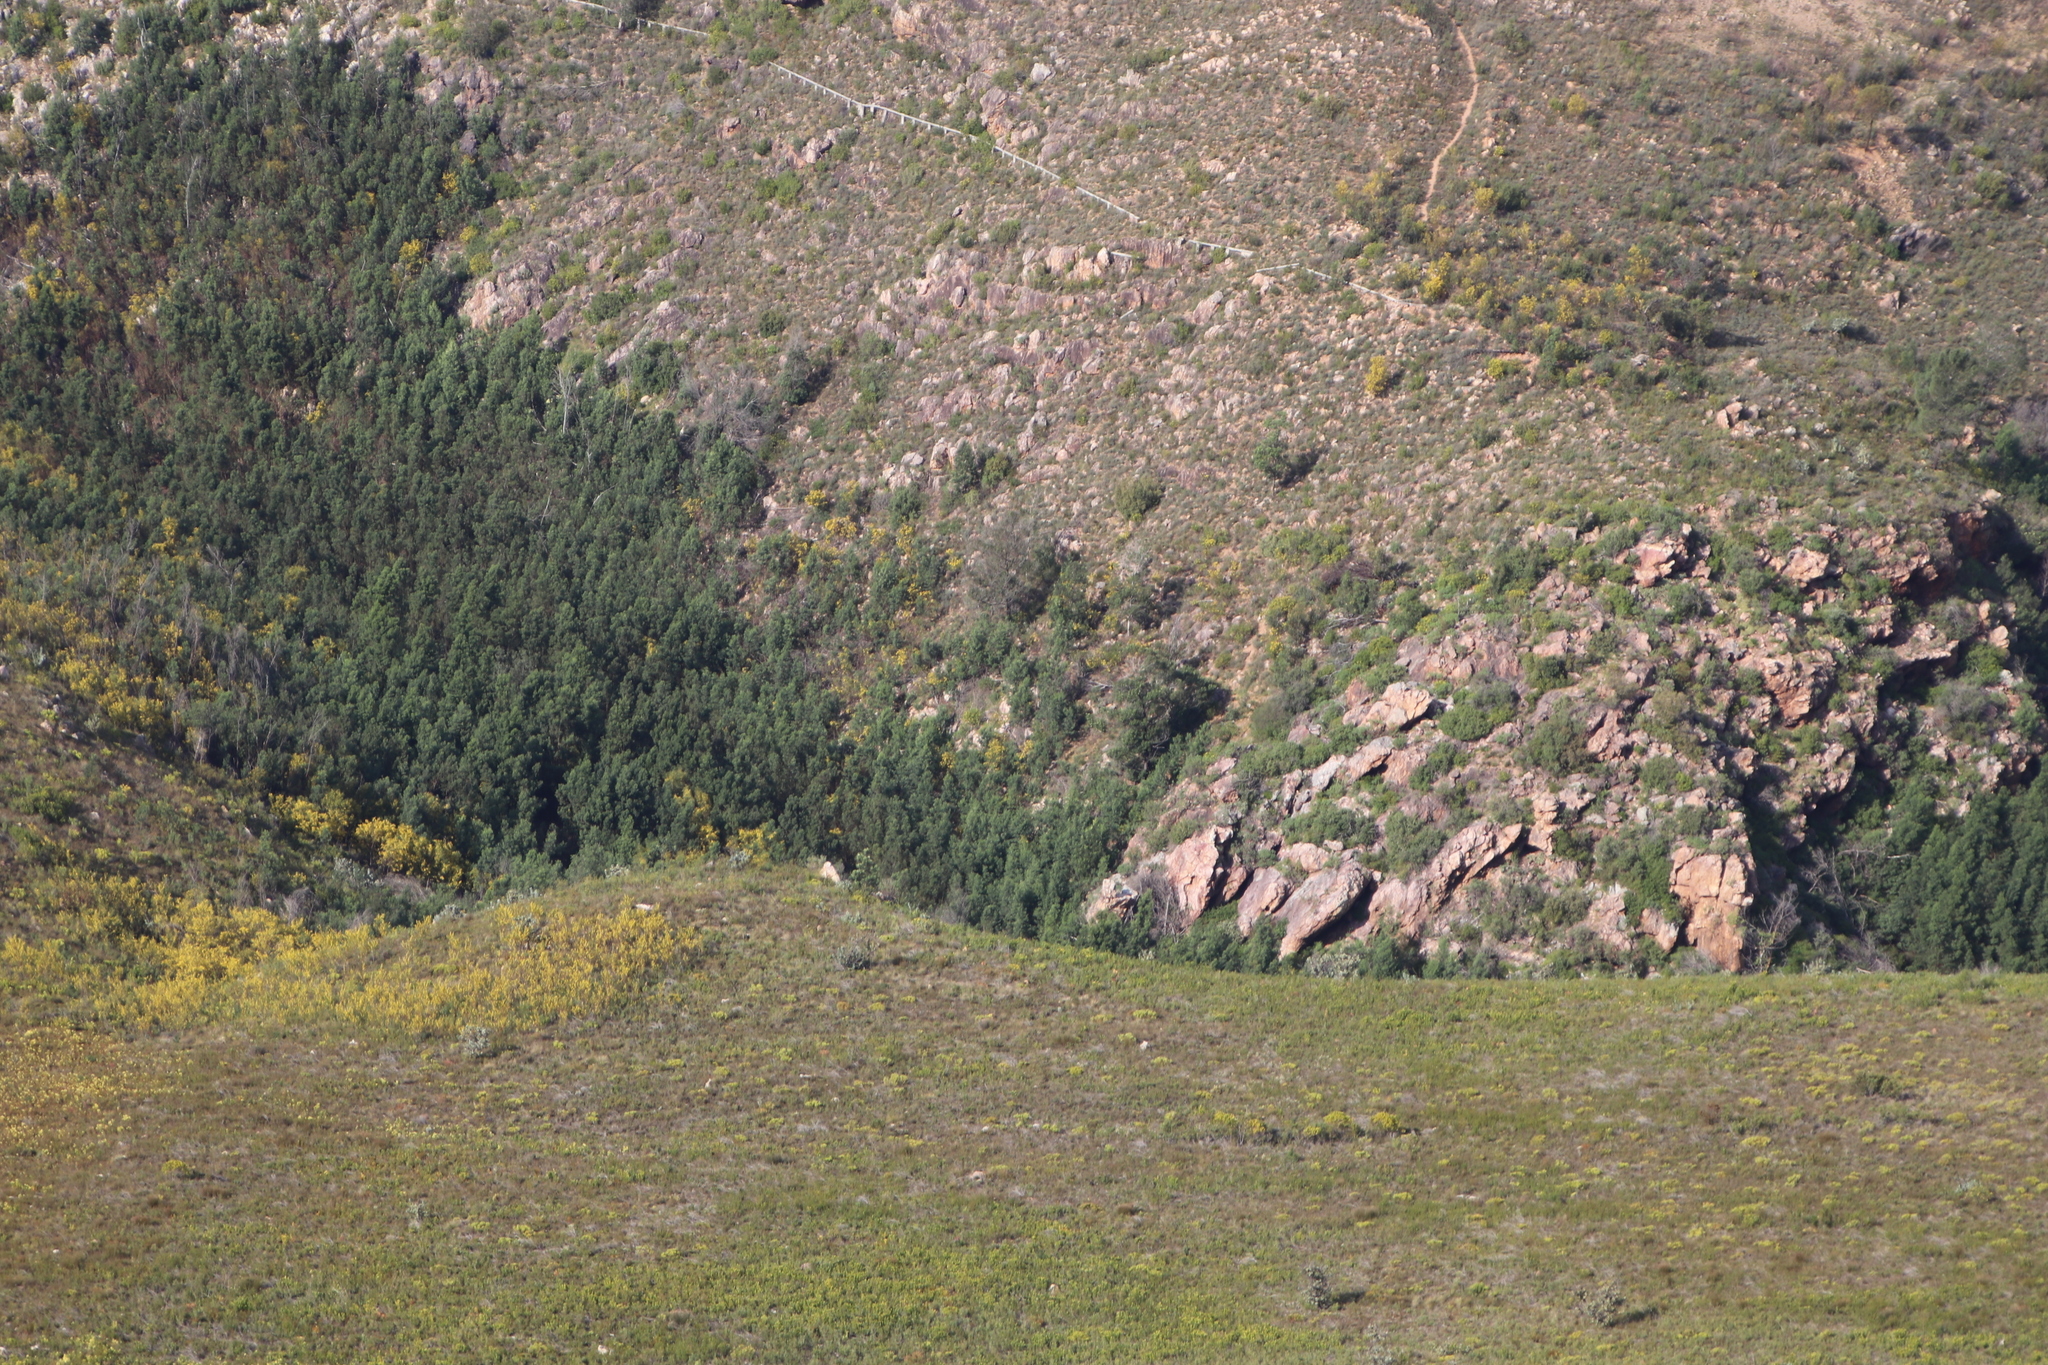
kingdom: Plantae
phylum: Tracheophyta
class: Magnoliopsida
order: Fabales
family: Fabaceae
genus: Acacia
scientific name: Acacia mearnsii
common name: Black wattle
